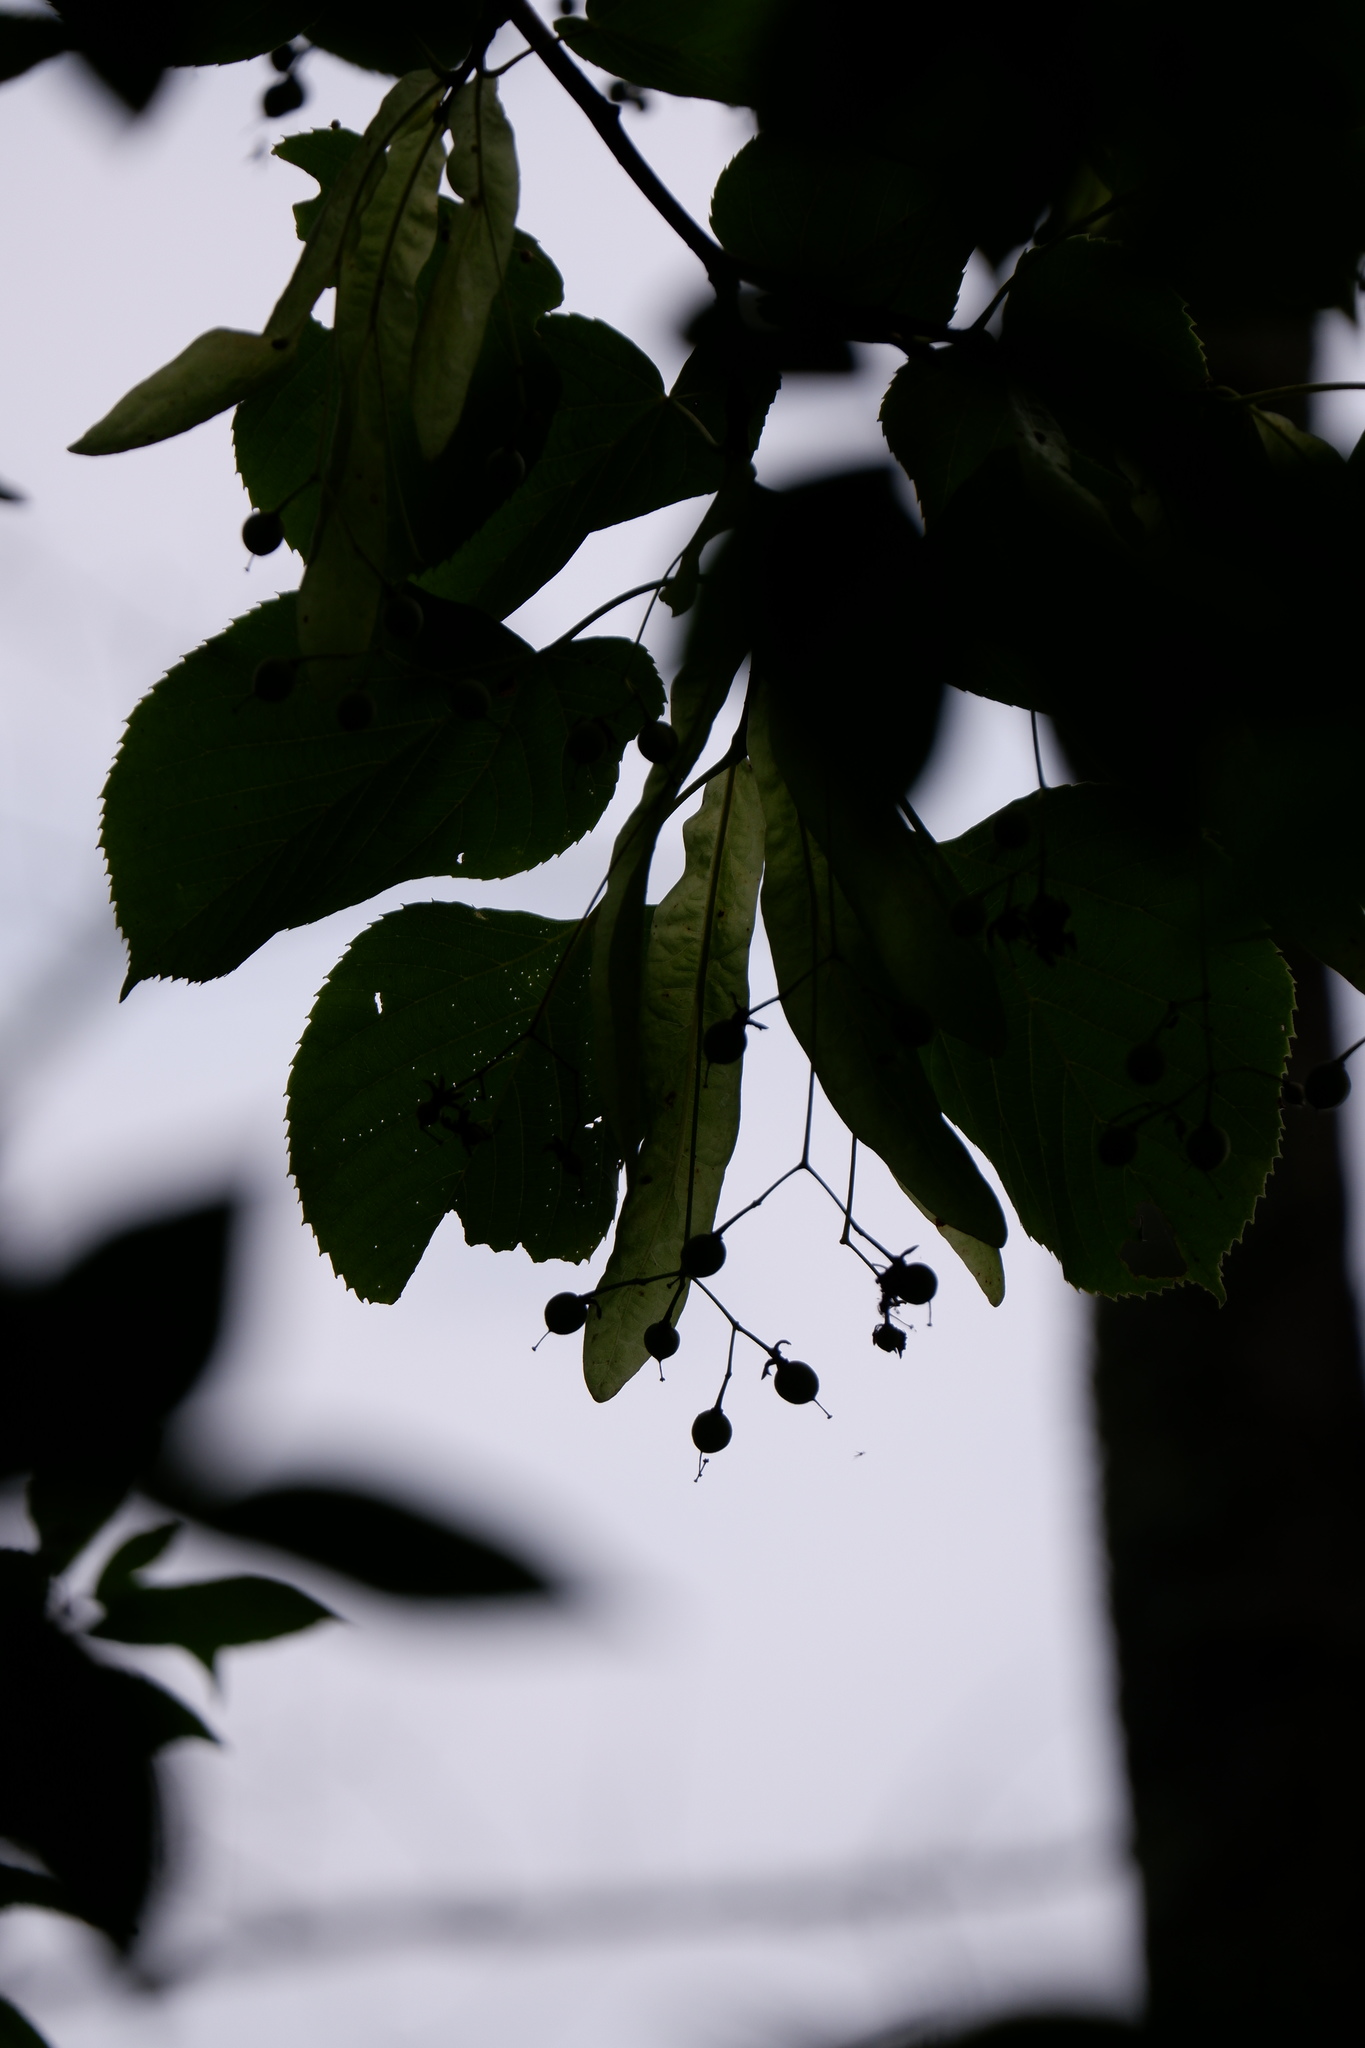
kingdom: Plantae
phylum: Tracheophyta
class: Magnoliopsida
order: Malvales
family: Malvaceae
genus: Tilia
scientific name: Tilia americana
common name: Basswood
